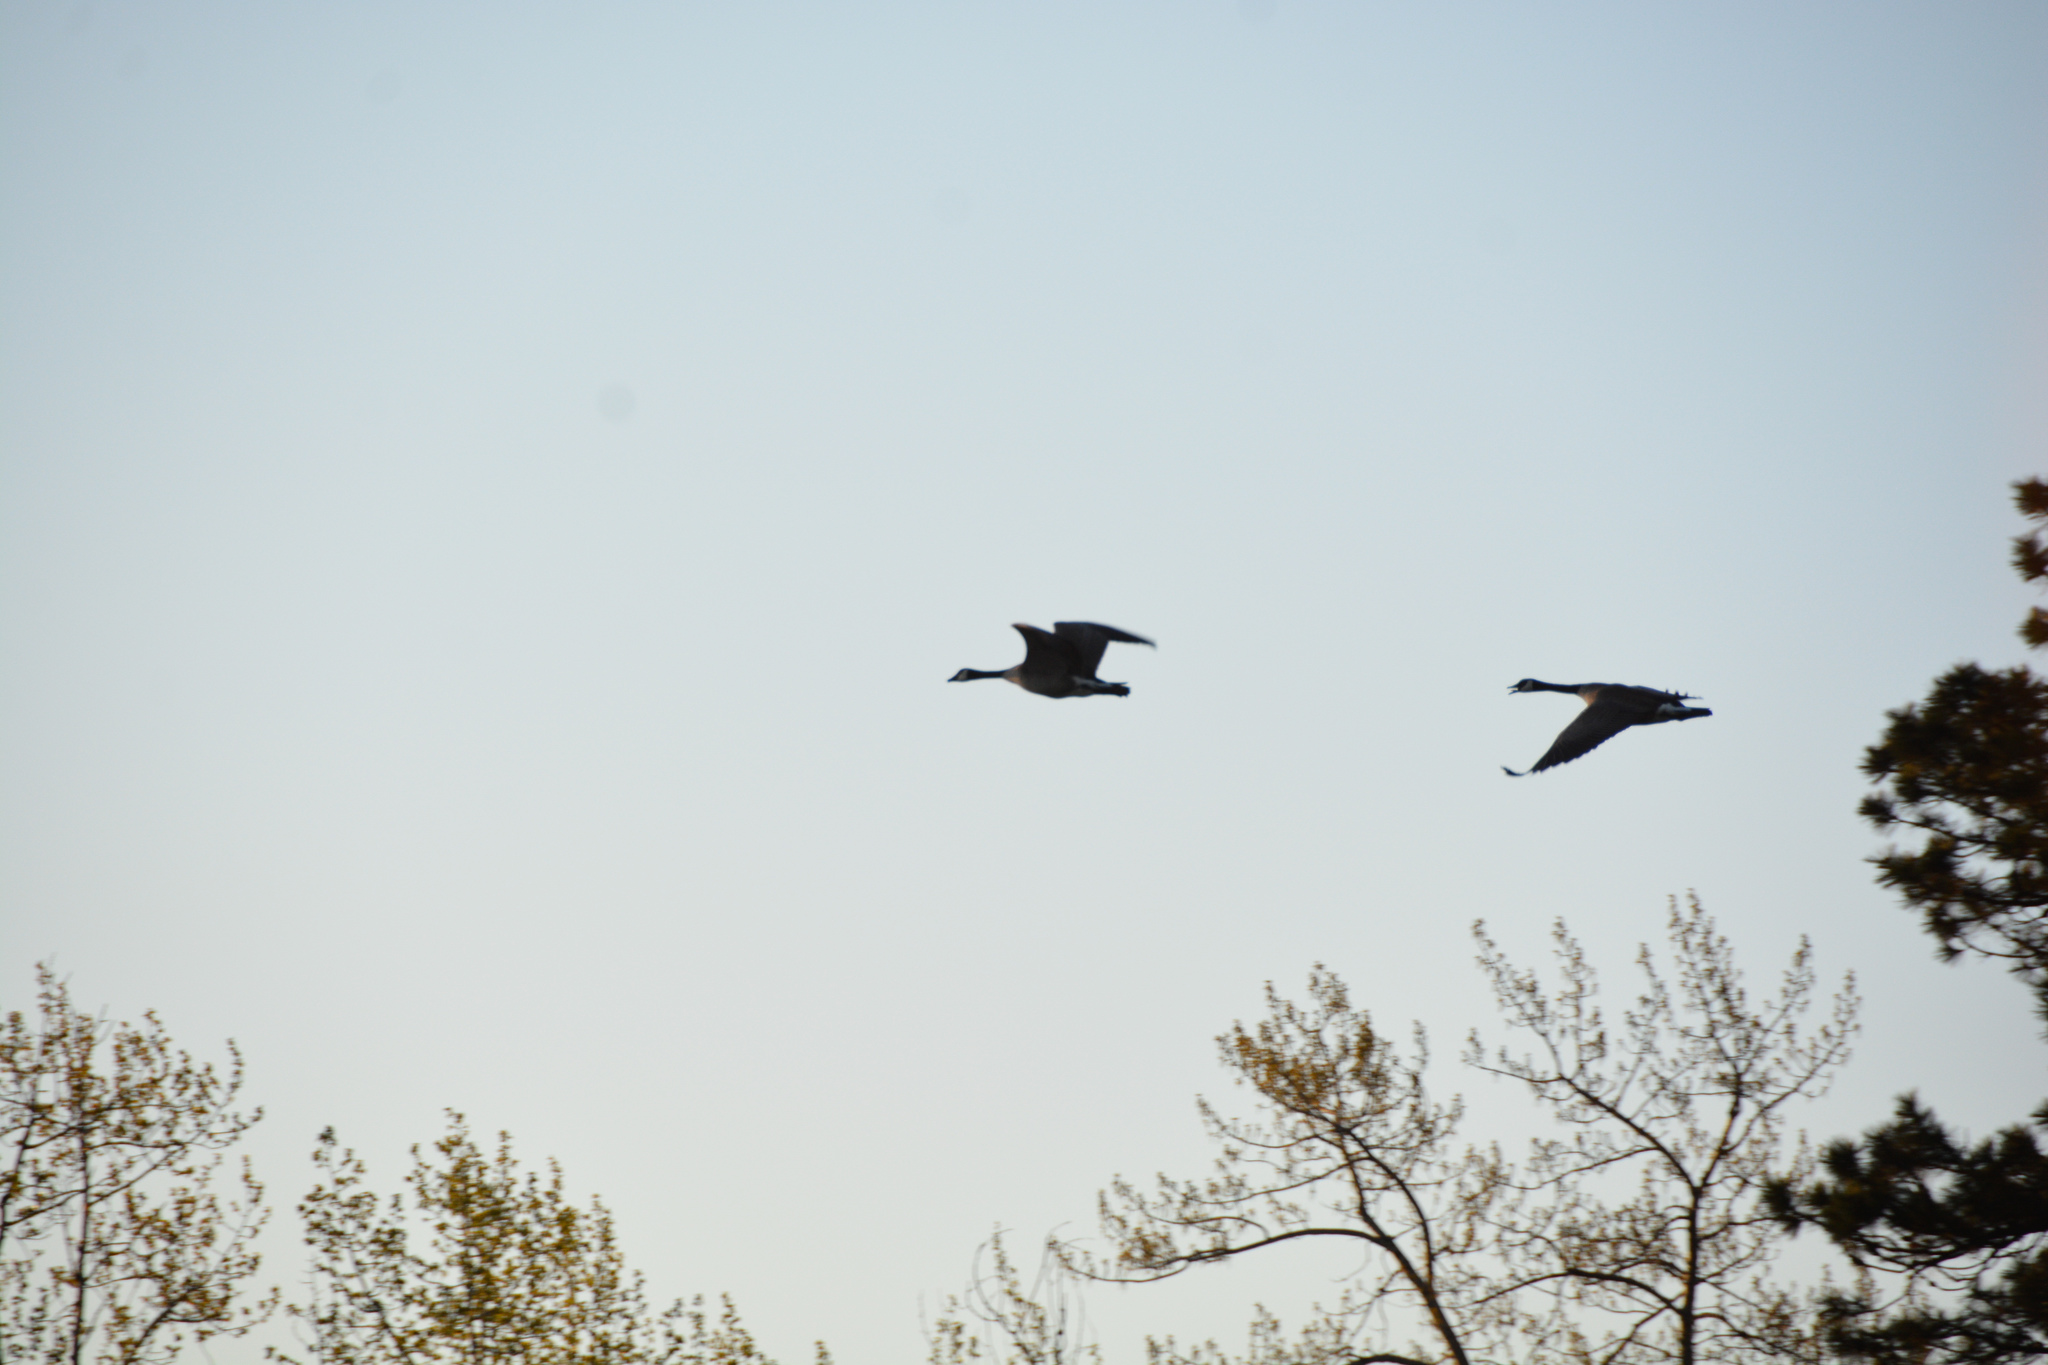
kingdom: Animalia
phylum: Chordata
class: Aves
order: Anseriformes
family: Anatidae
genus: Branta
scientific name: Branta canadensis
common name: Canada goose
